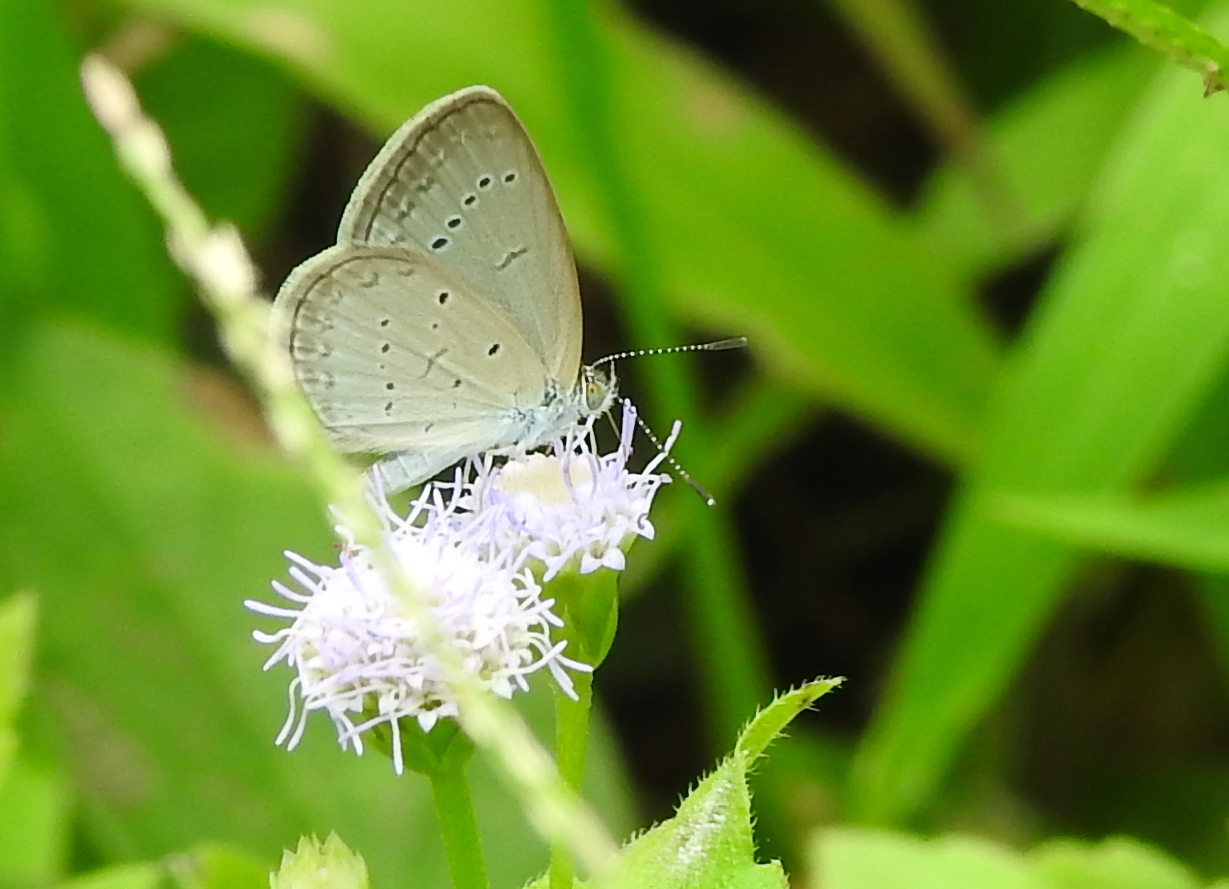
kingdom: Animalia
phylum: Arthropoda
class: Insecta
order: Lepidoptera
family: Lycaenidae
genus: Zizina
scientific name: Zizina otis
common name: Lesser grass blue
